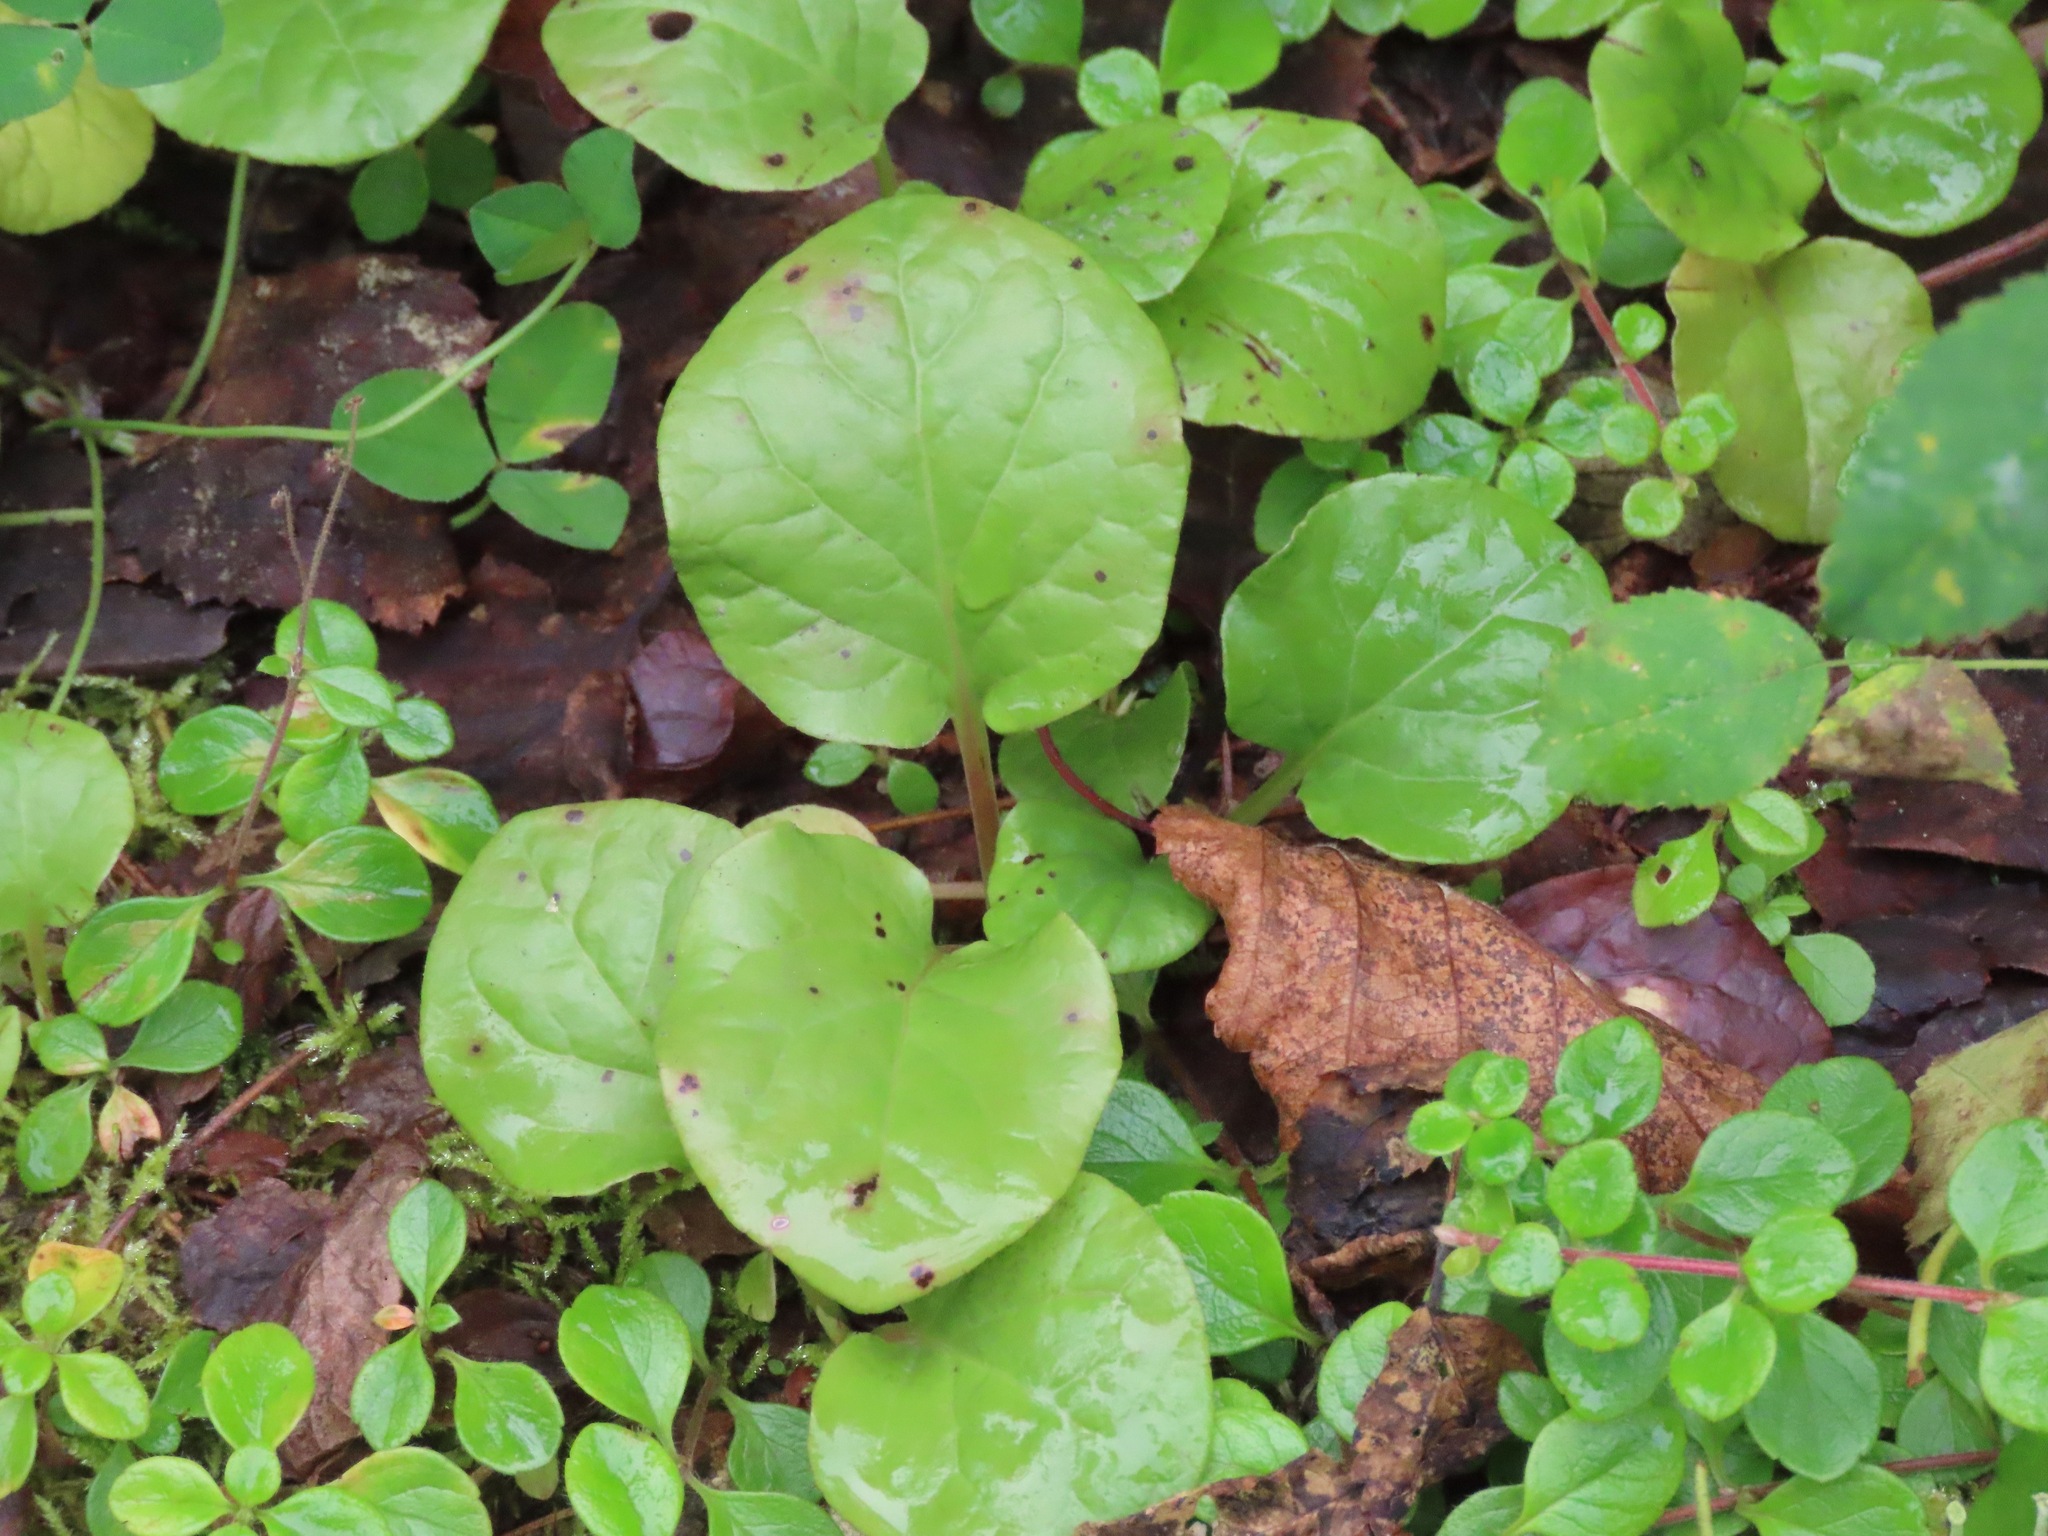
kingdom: Plantae
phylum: Tracheophyta
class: Magnoliopsida
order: Ericales
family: Ericaceae
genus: Pyrola
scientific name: Pyrola asarifolia
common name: Bog wintergreen
